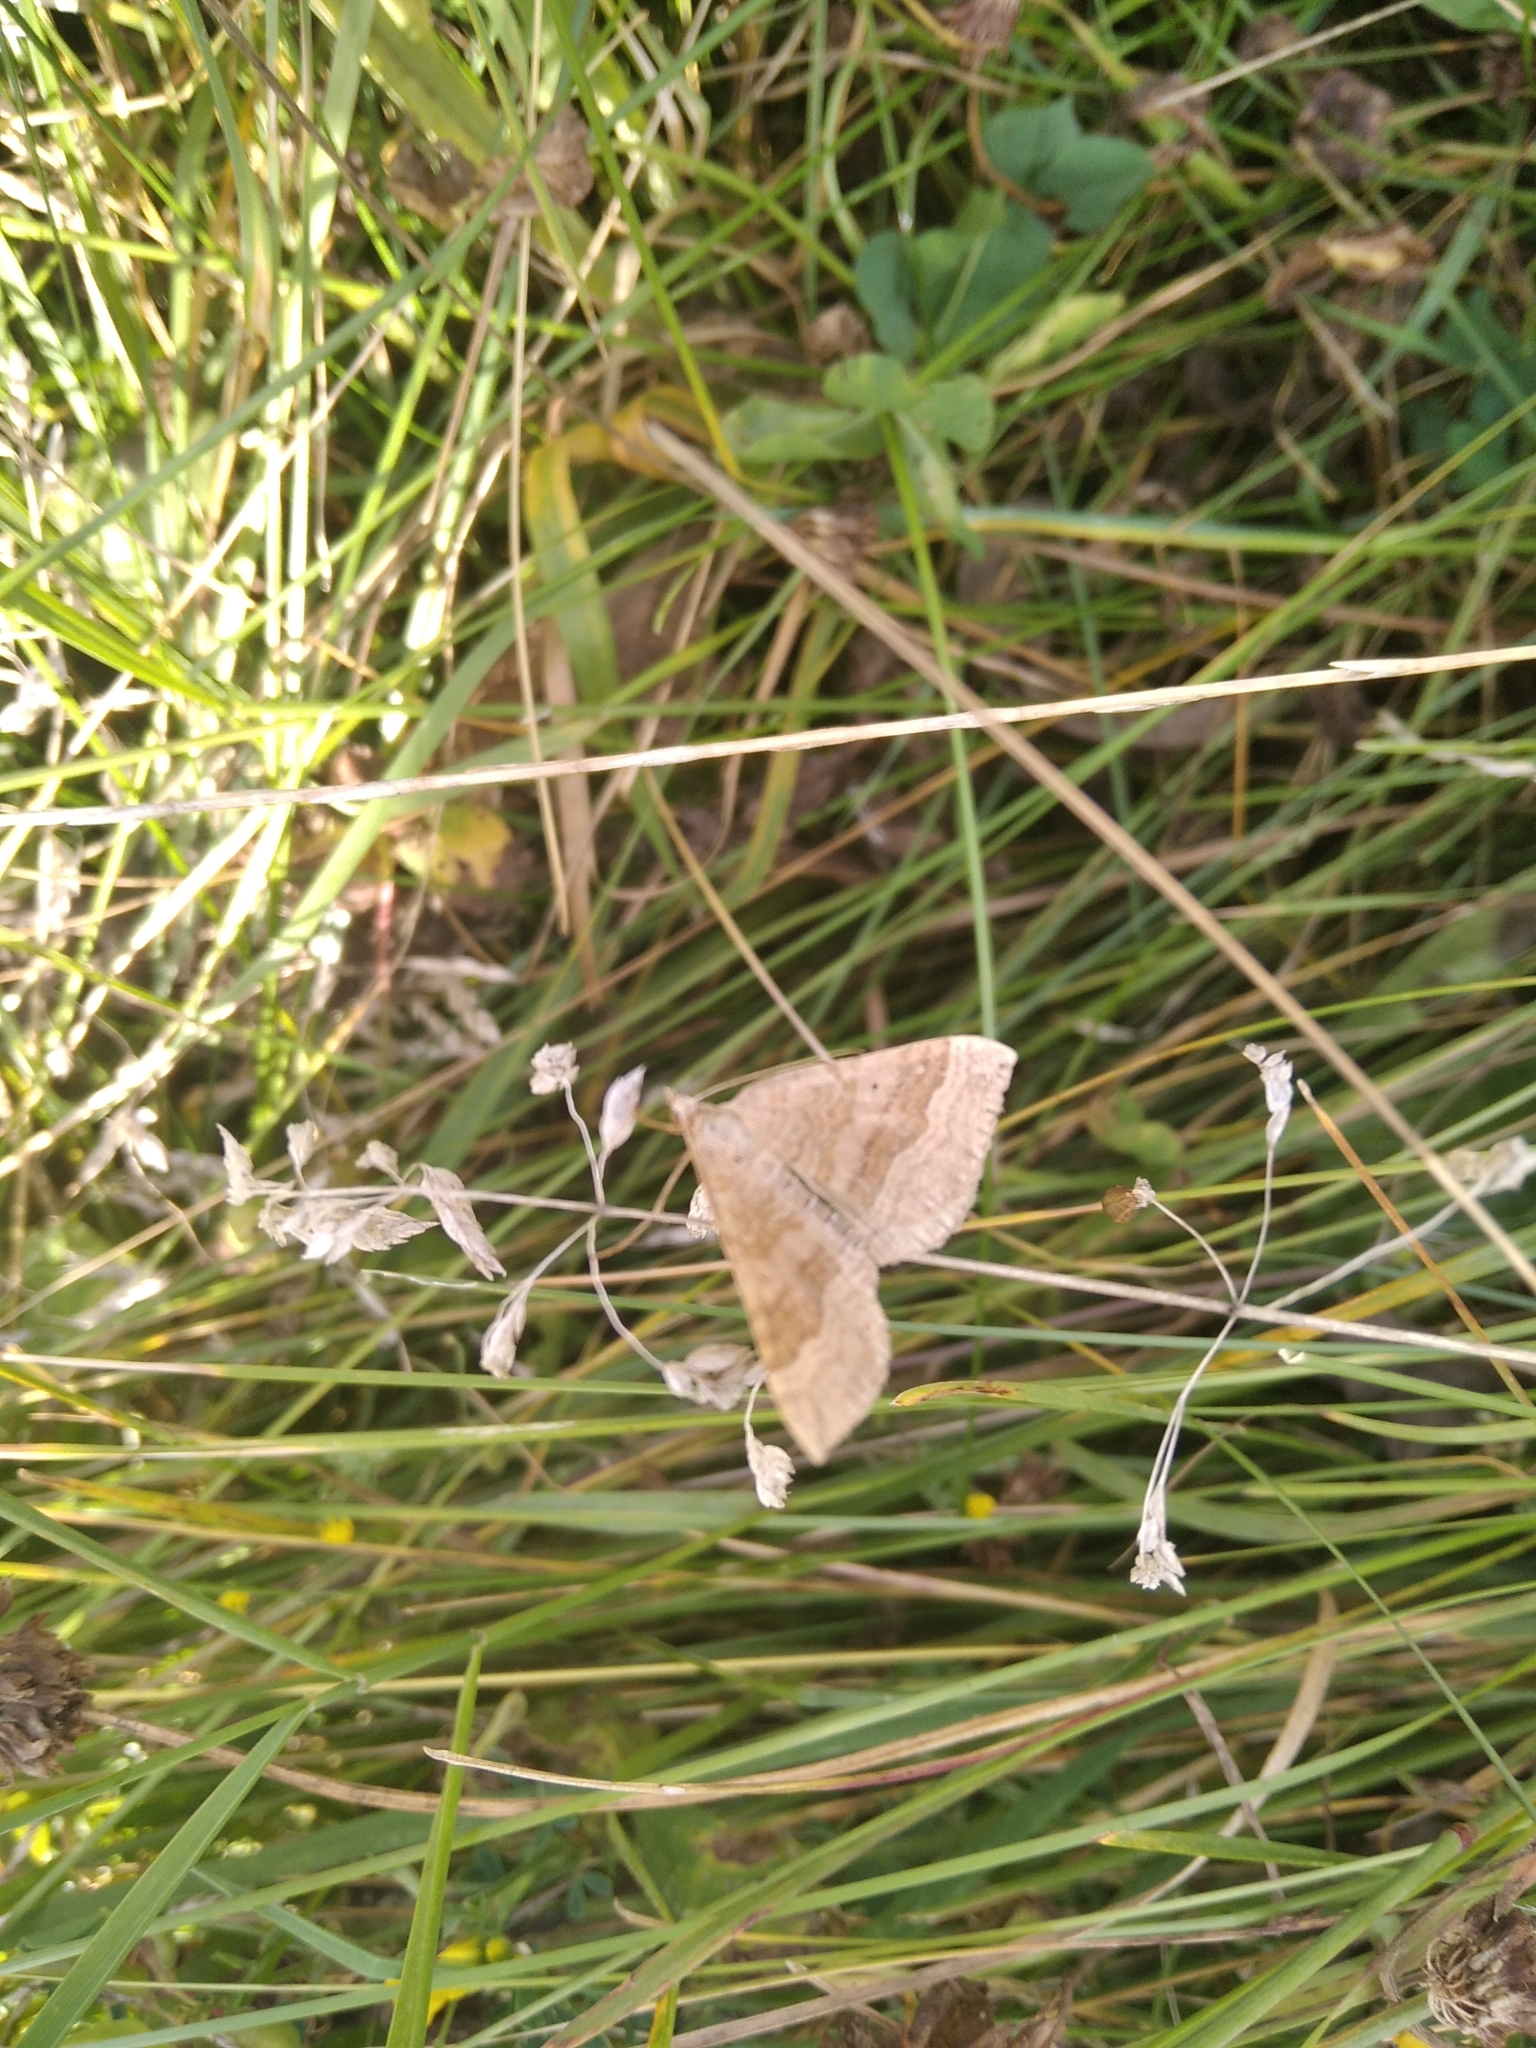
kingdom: Animalia
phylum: Arthropoda
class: Insecta
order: Lepidoptera
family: Geometridae
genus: Scotopteryx
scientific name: Scotopteryx chenopodiata
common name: Shaded broad-bar
